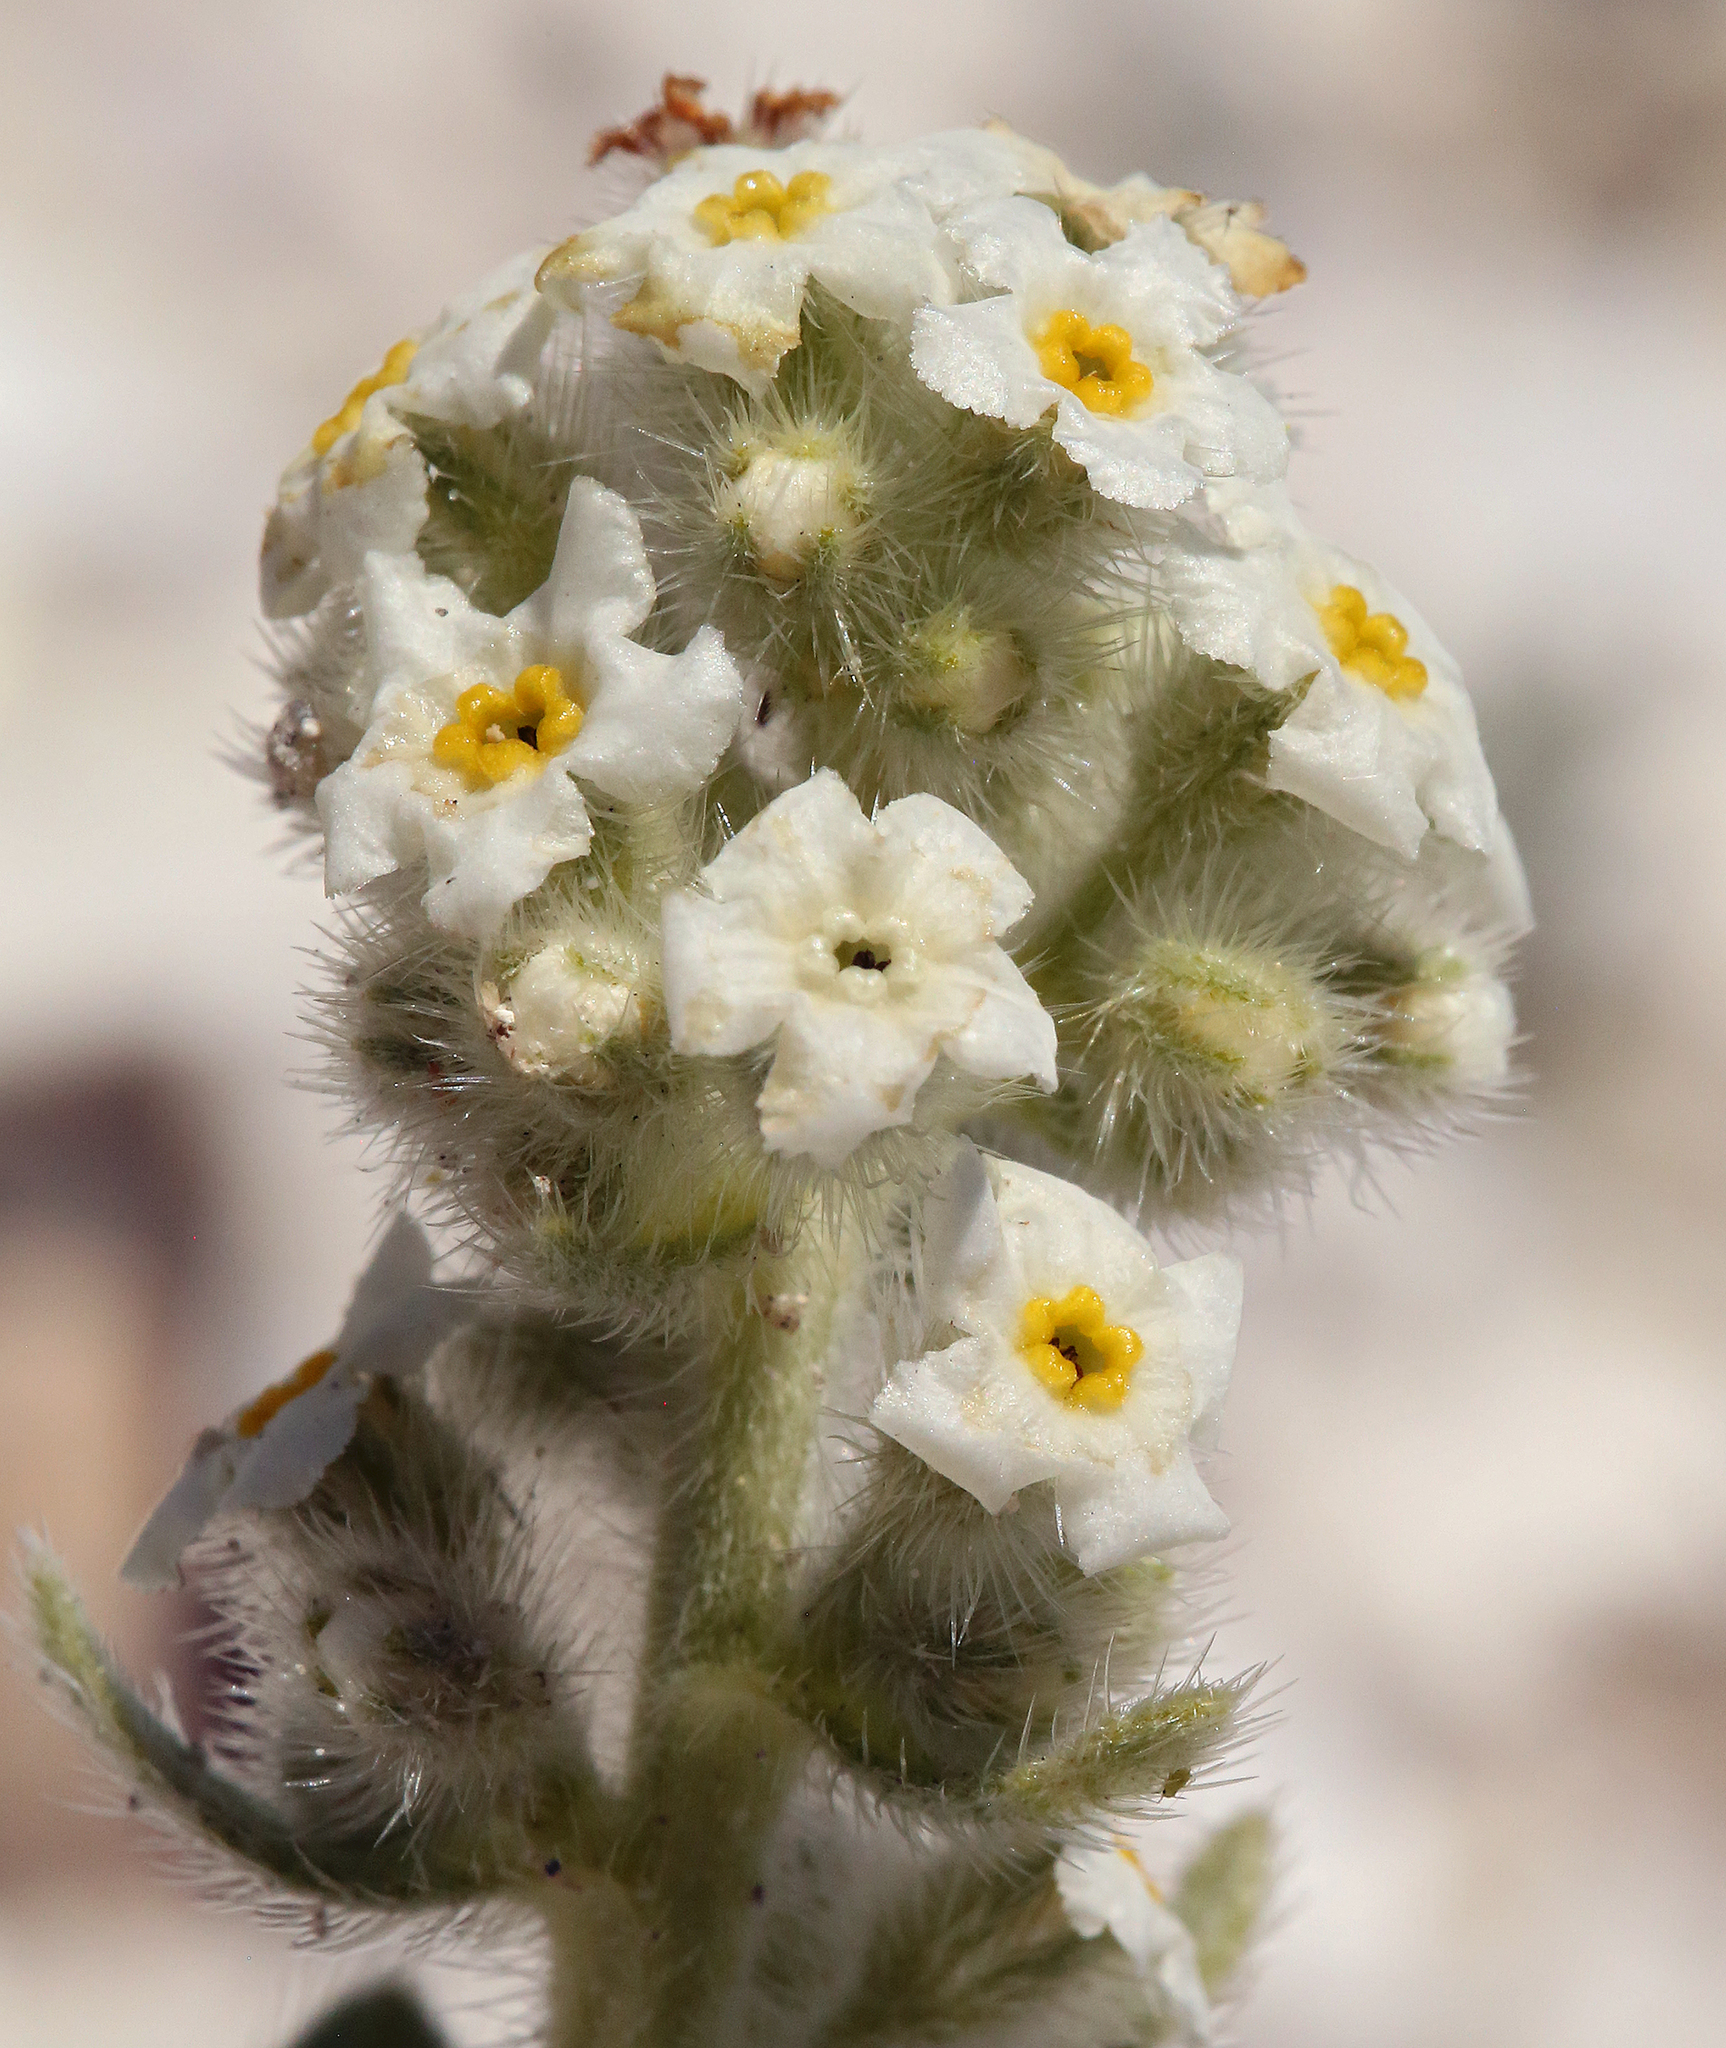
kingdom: Plantae
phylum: Tracheophyta
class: Magnoliopsida
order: Boraginales
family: Boraginaceae
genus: Oreocarya
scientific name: Oreocarya flavoculata
